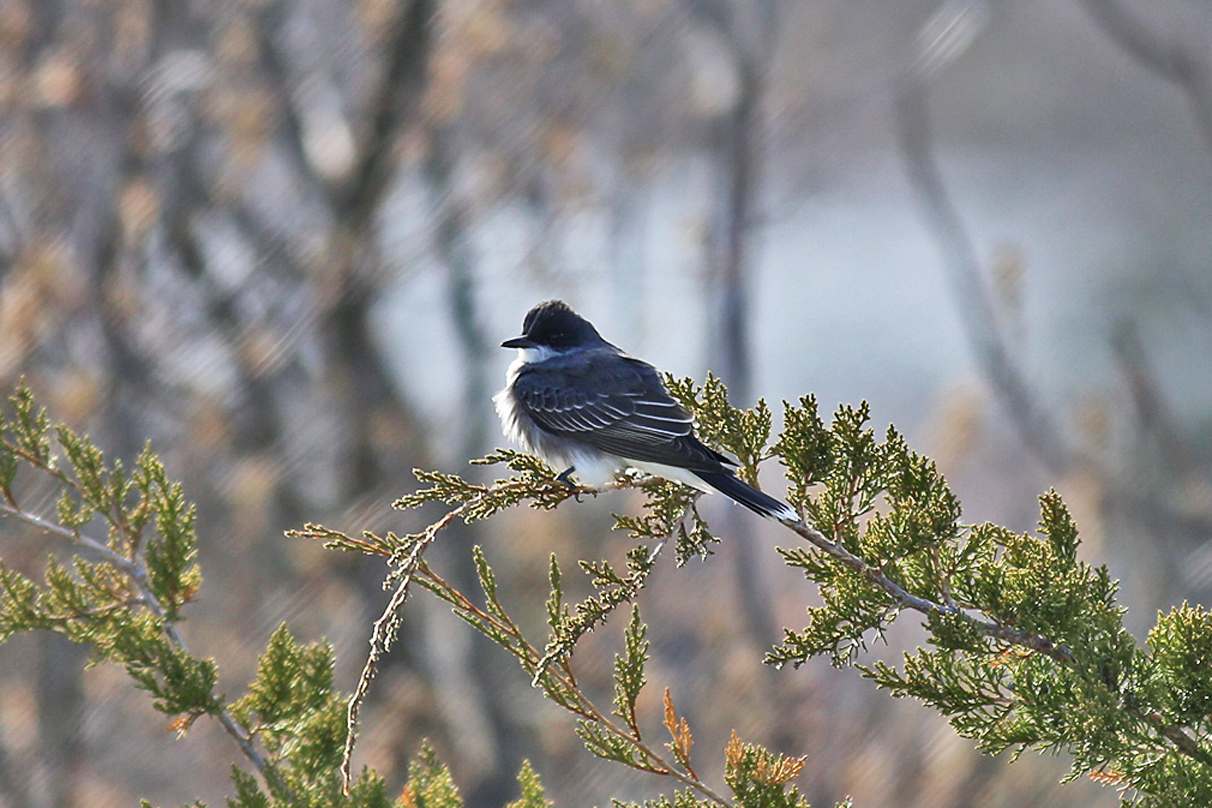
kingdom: Animalia
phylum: Chordata
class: Aves
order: Passeriformes
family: Tyrannidae
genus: Tyrannus
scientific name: Tyrannus tyrannus
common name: Eastern kingbird
